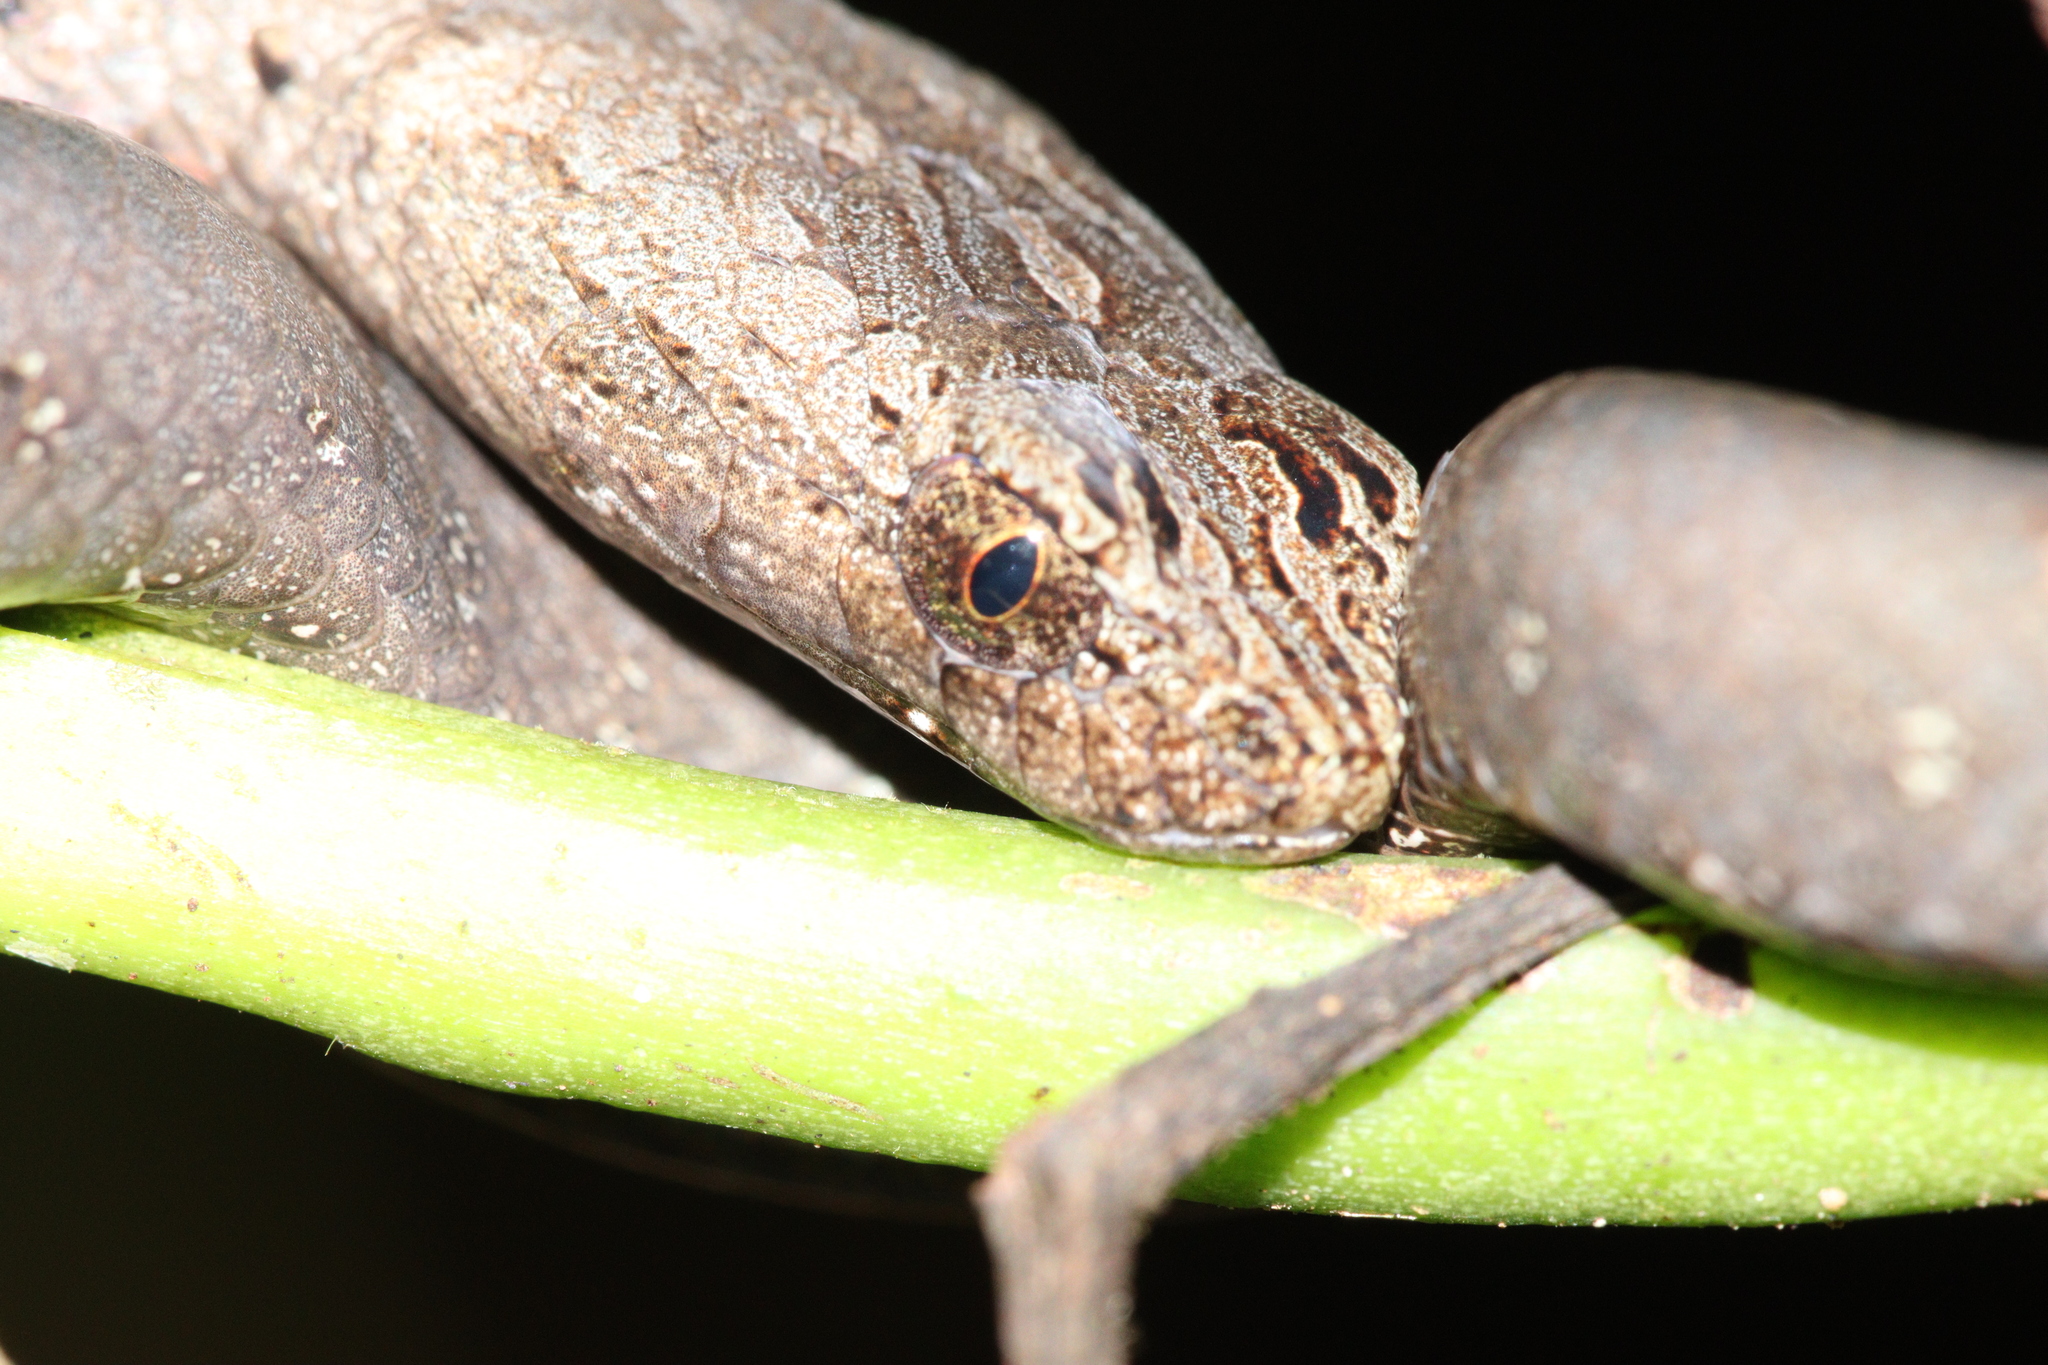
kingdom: Animalia
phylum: Chordata
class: Squamata
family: Pseudaspididae
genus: Psammodynastes
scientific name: Psammodynastes pulverulentus
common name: Common mock viper
